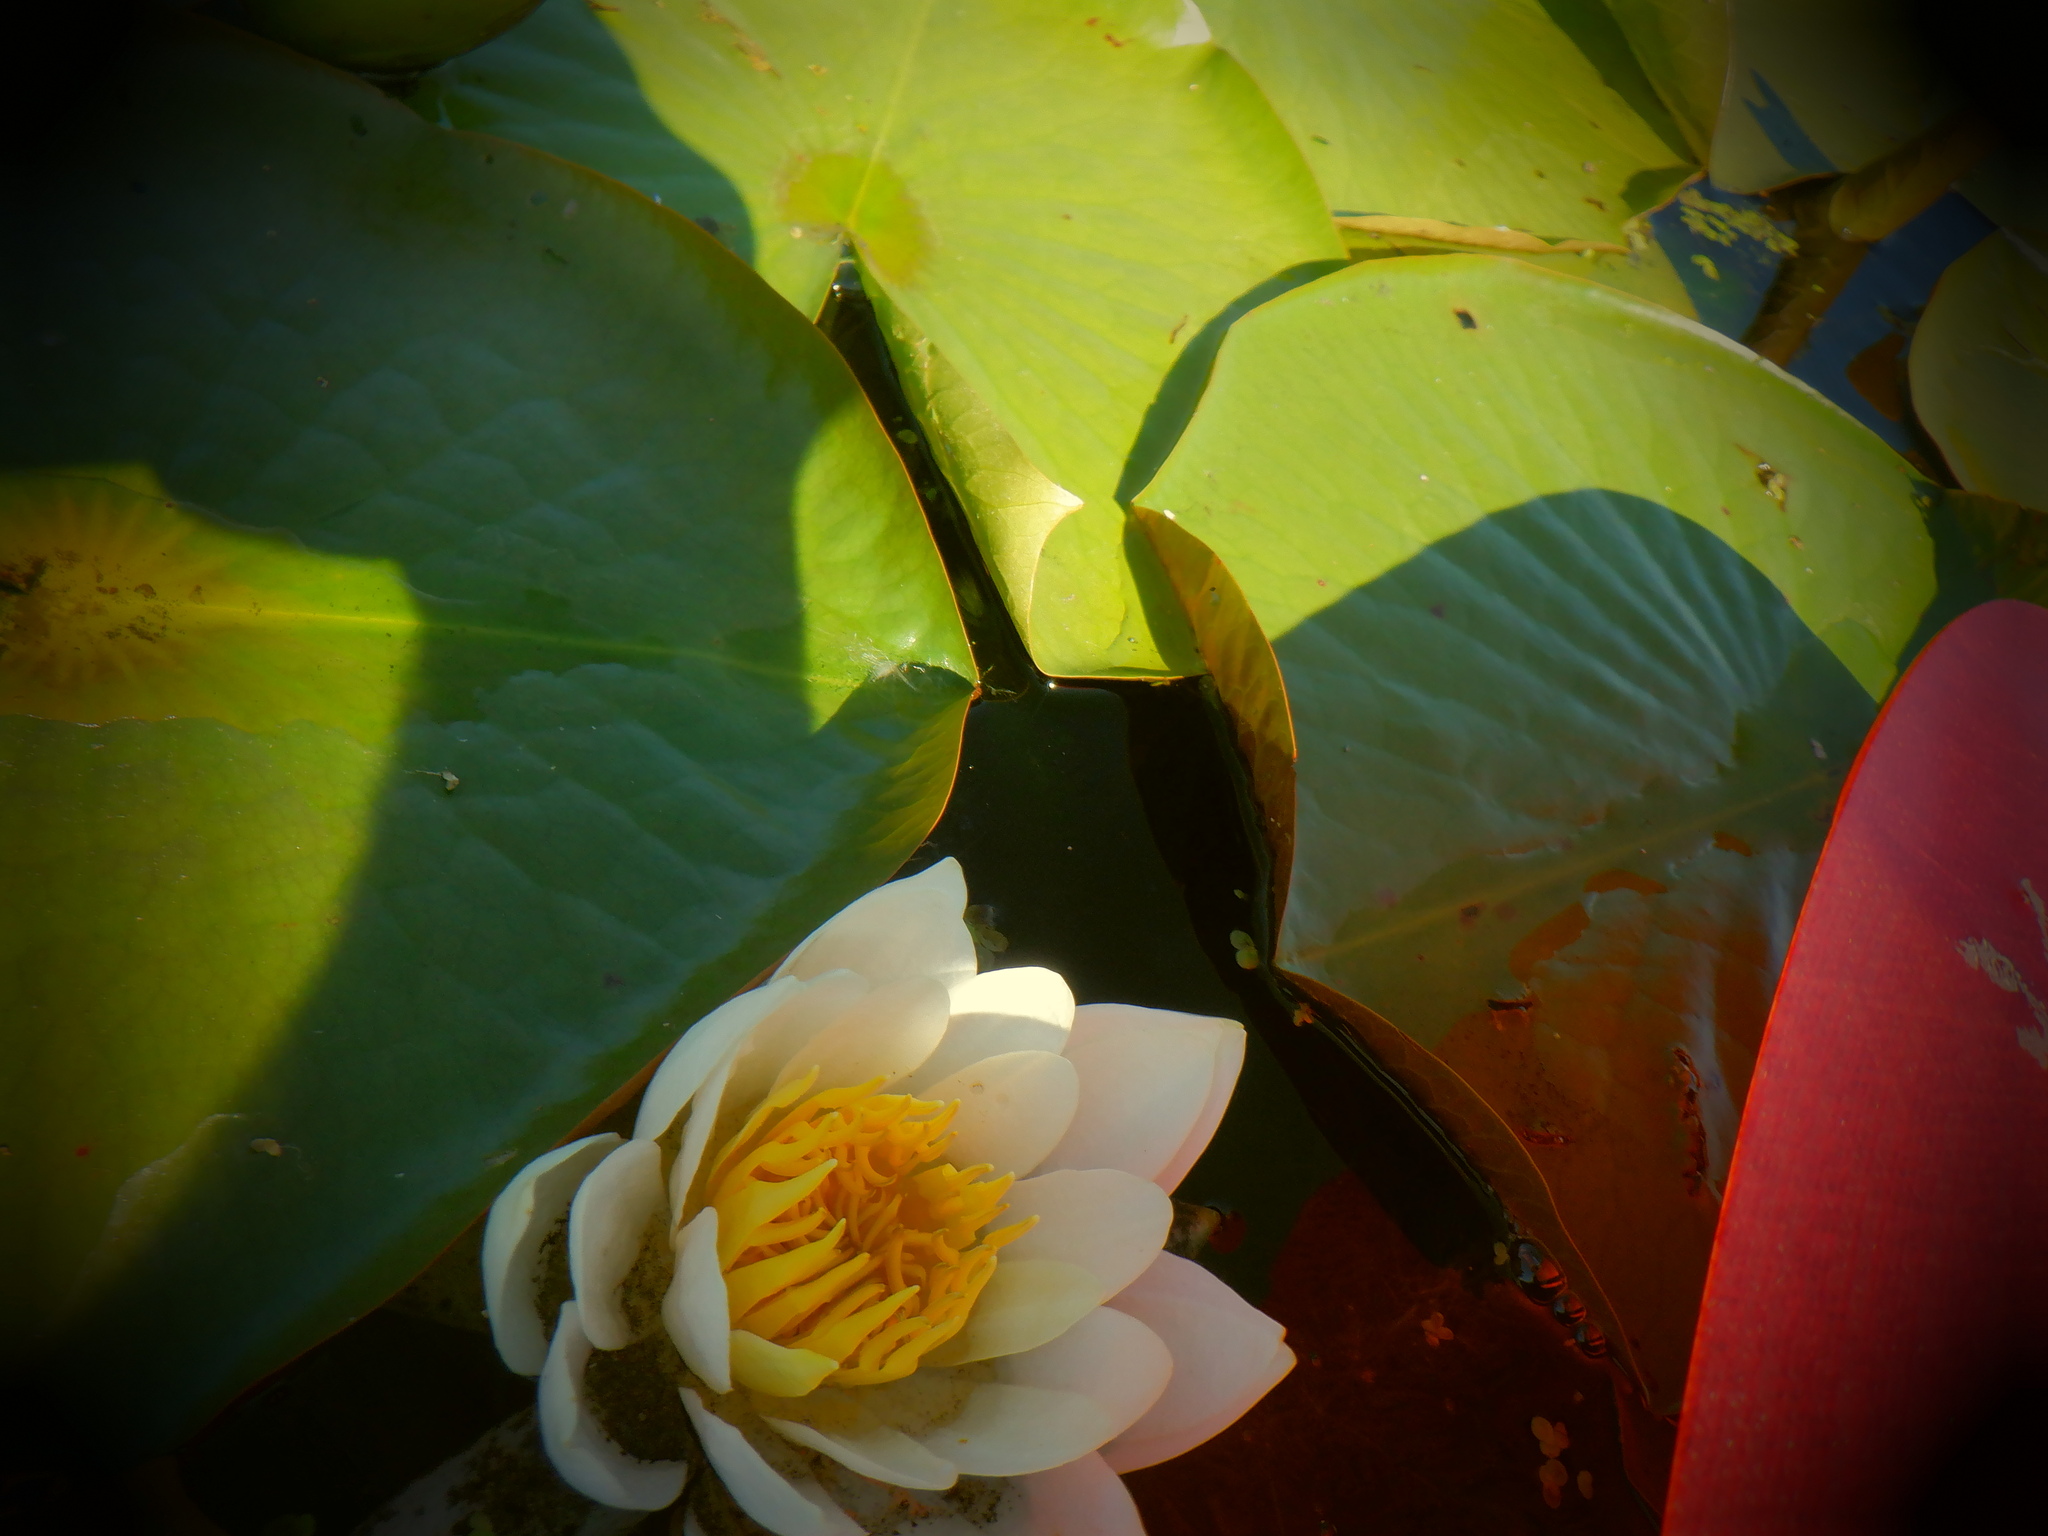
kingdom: Plantae
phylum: Tracheophyta
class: Magnoliopsida
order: Nymphaeales
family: Nymphaeaceae
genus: Nymphaea
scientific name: Nymphaea odorata
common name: Fragrant water-lily
